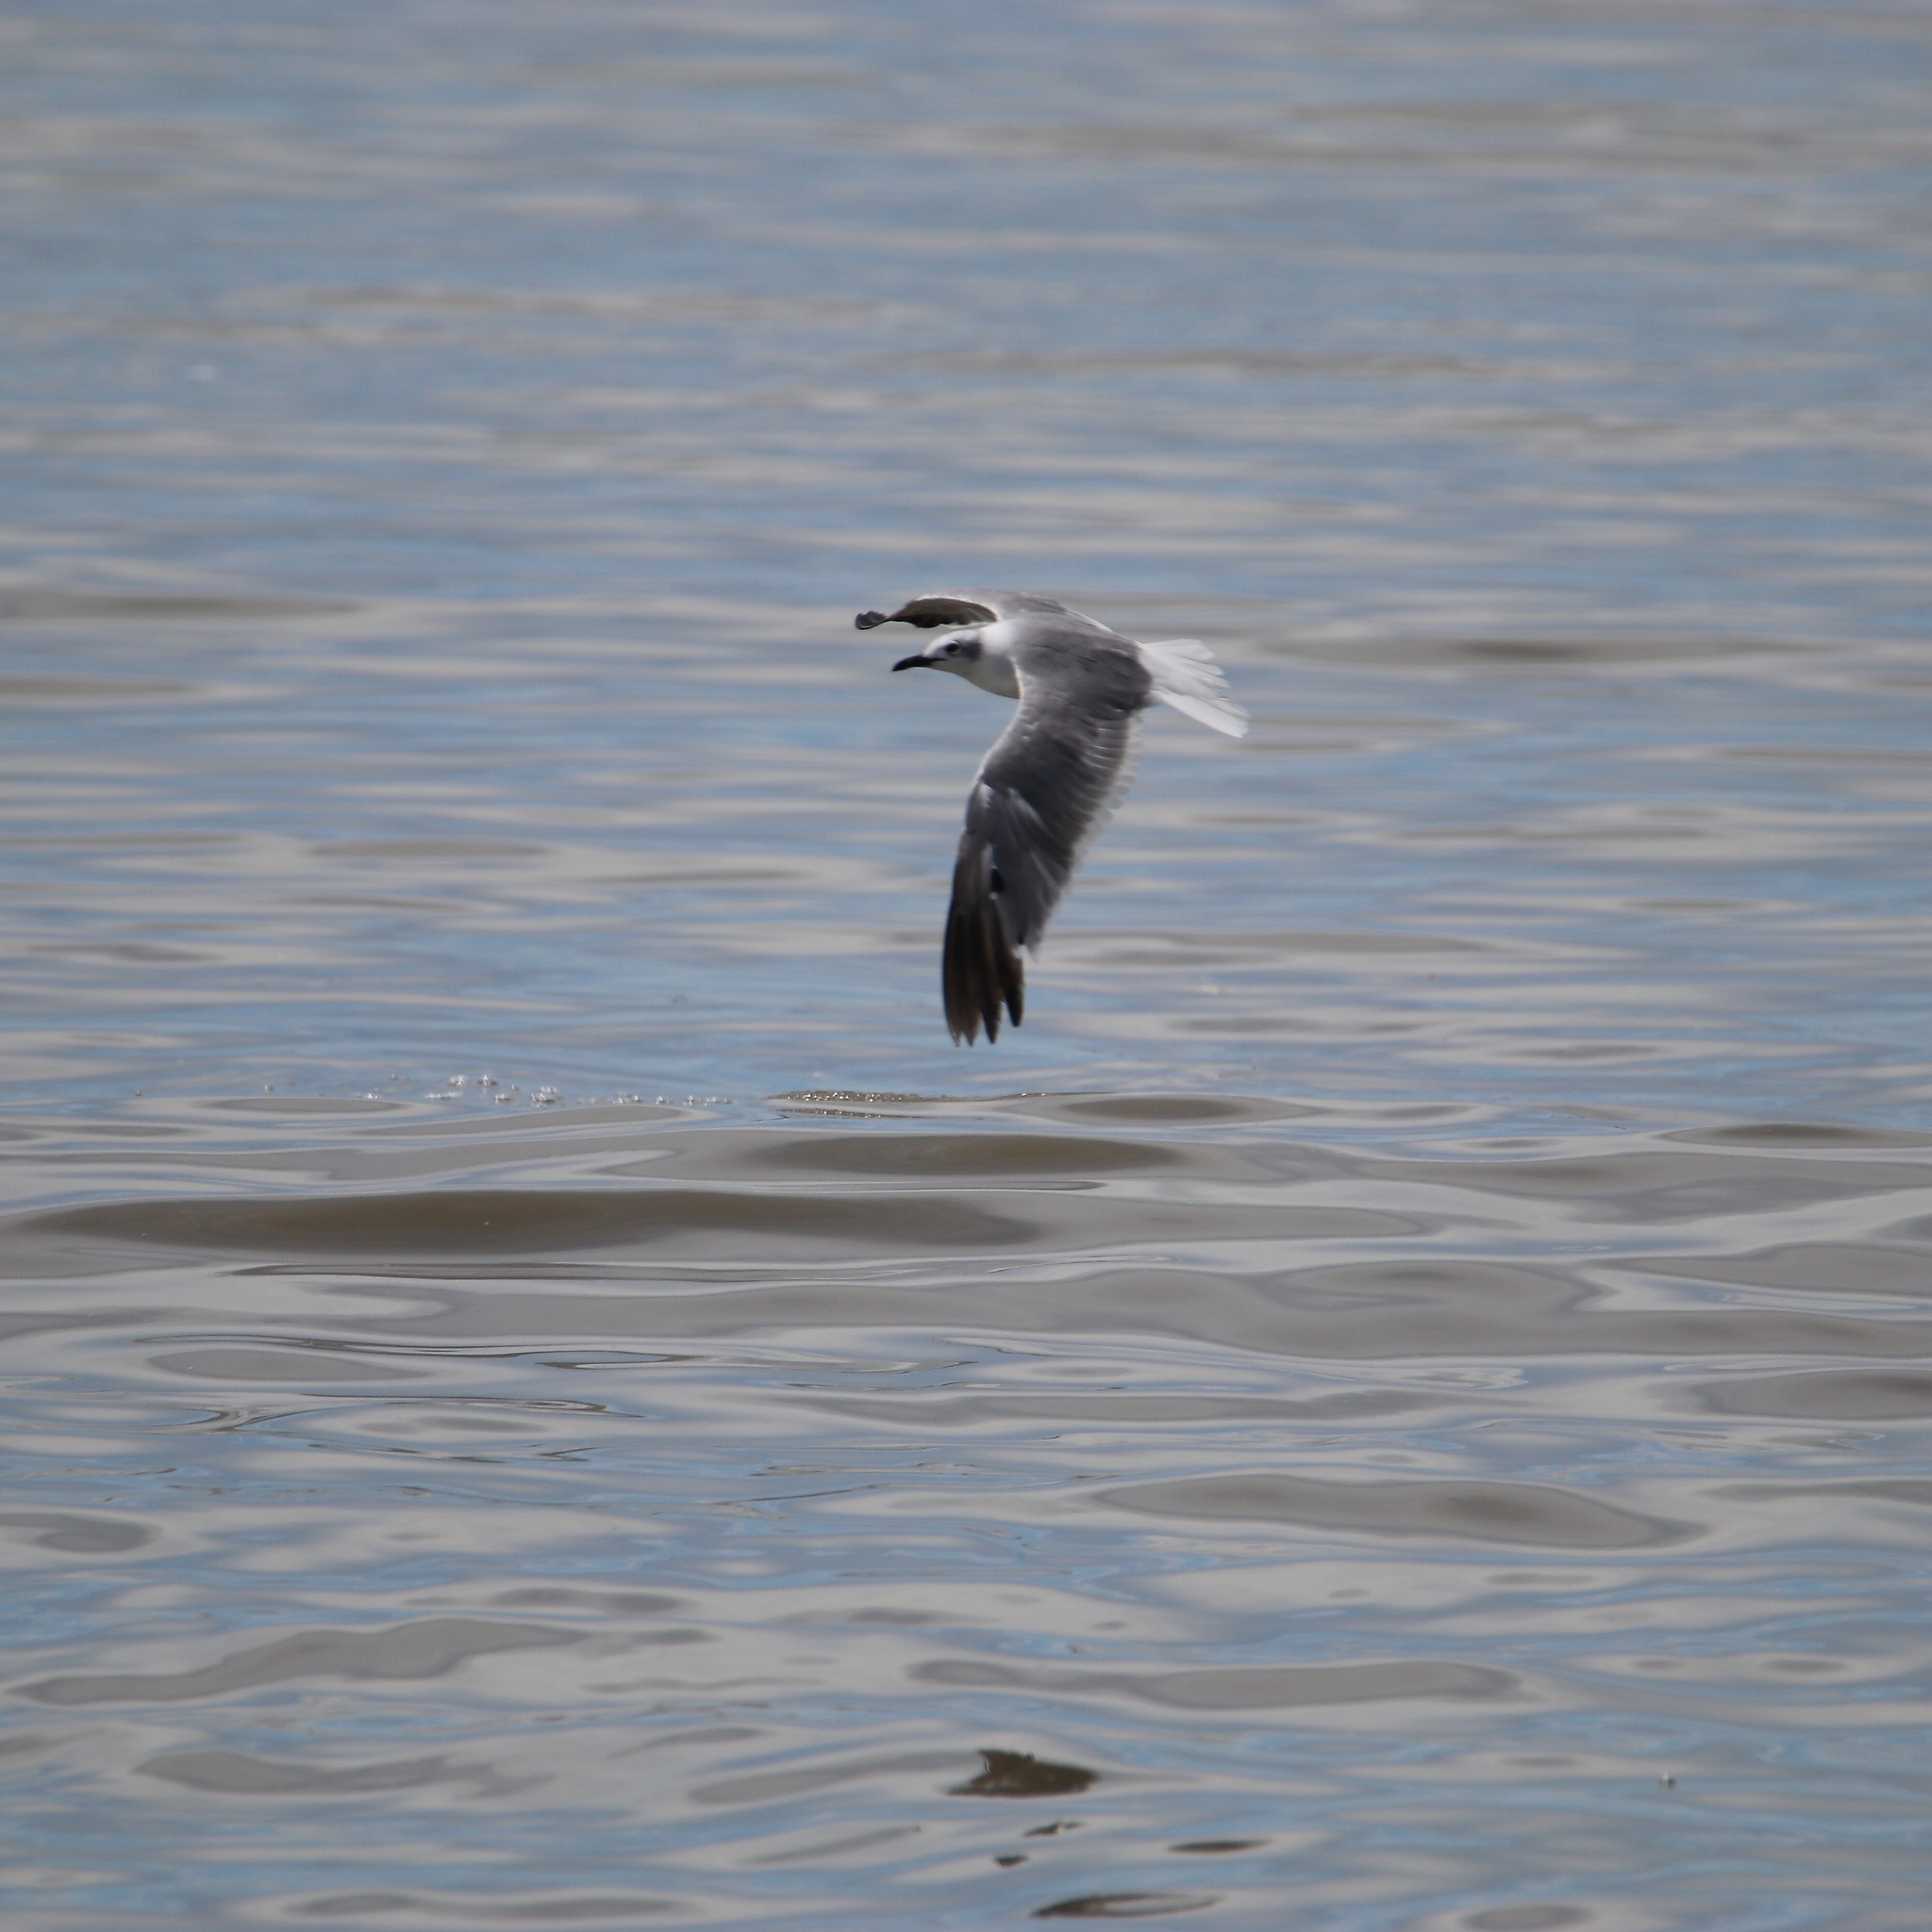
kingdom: Animalia
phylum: Chordata
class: Aves
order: Charadriiformes
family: Laridae
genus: Leucophaeus
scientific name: Leucophaeus atricilla
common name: Laughing gull
